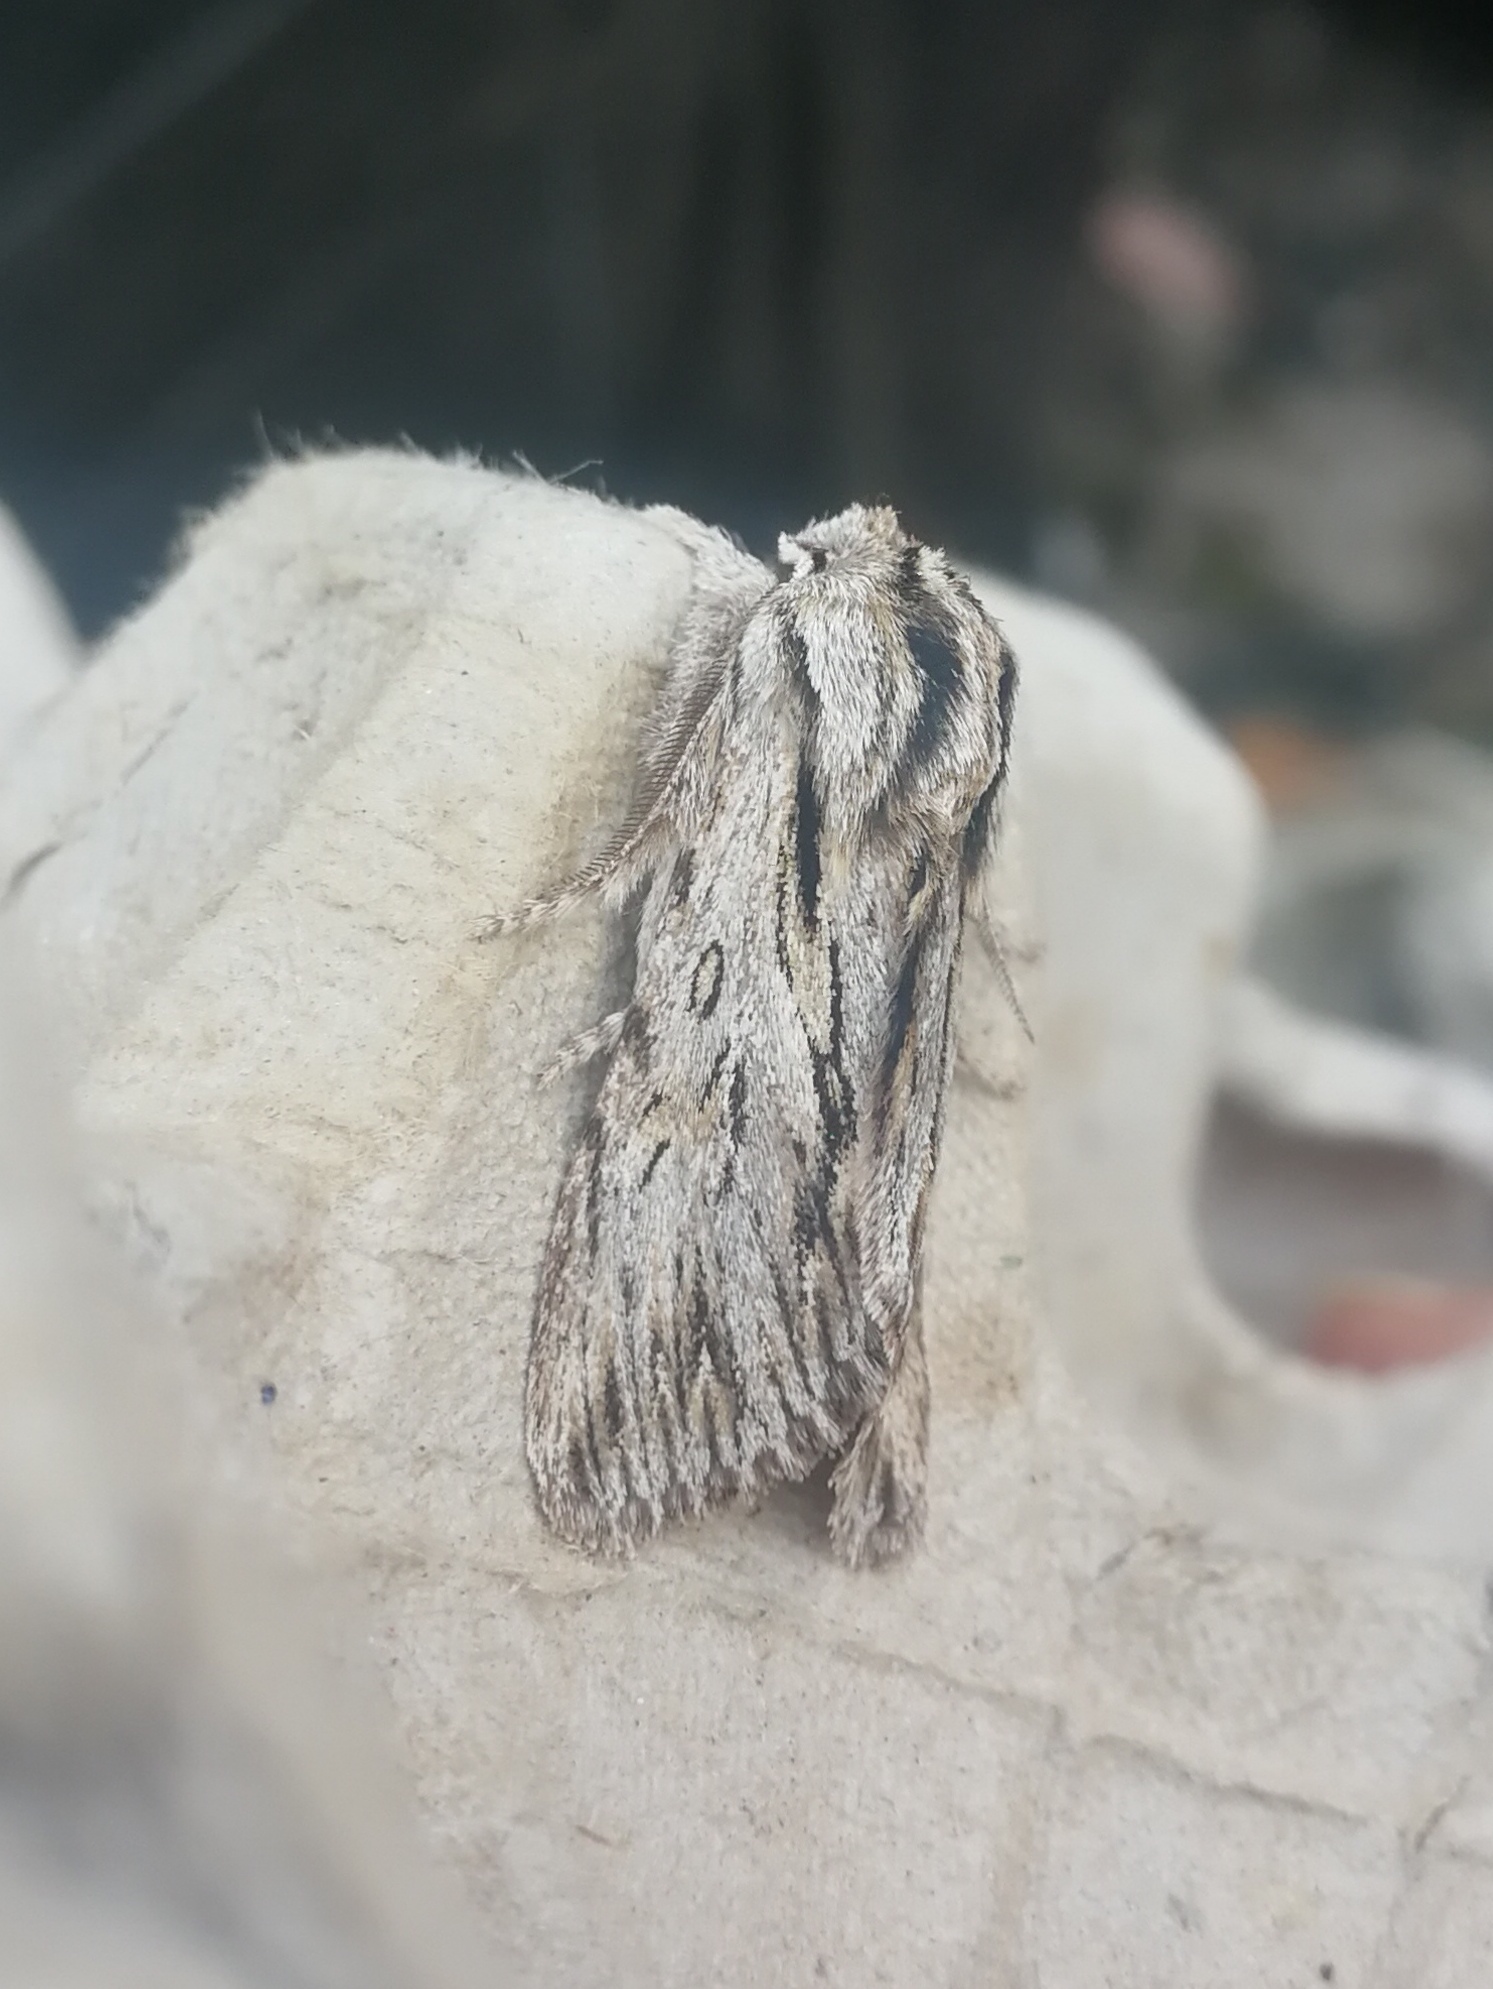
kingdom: Animalia
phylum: Arthropoda
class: Insecta
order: Lepidoptera
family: Noctuidae
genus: Asteroscopus
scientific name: Asteroscopus sphinx
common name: The sprawler
